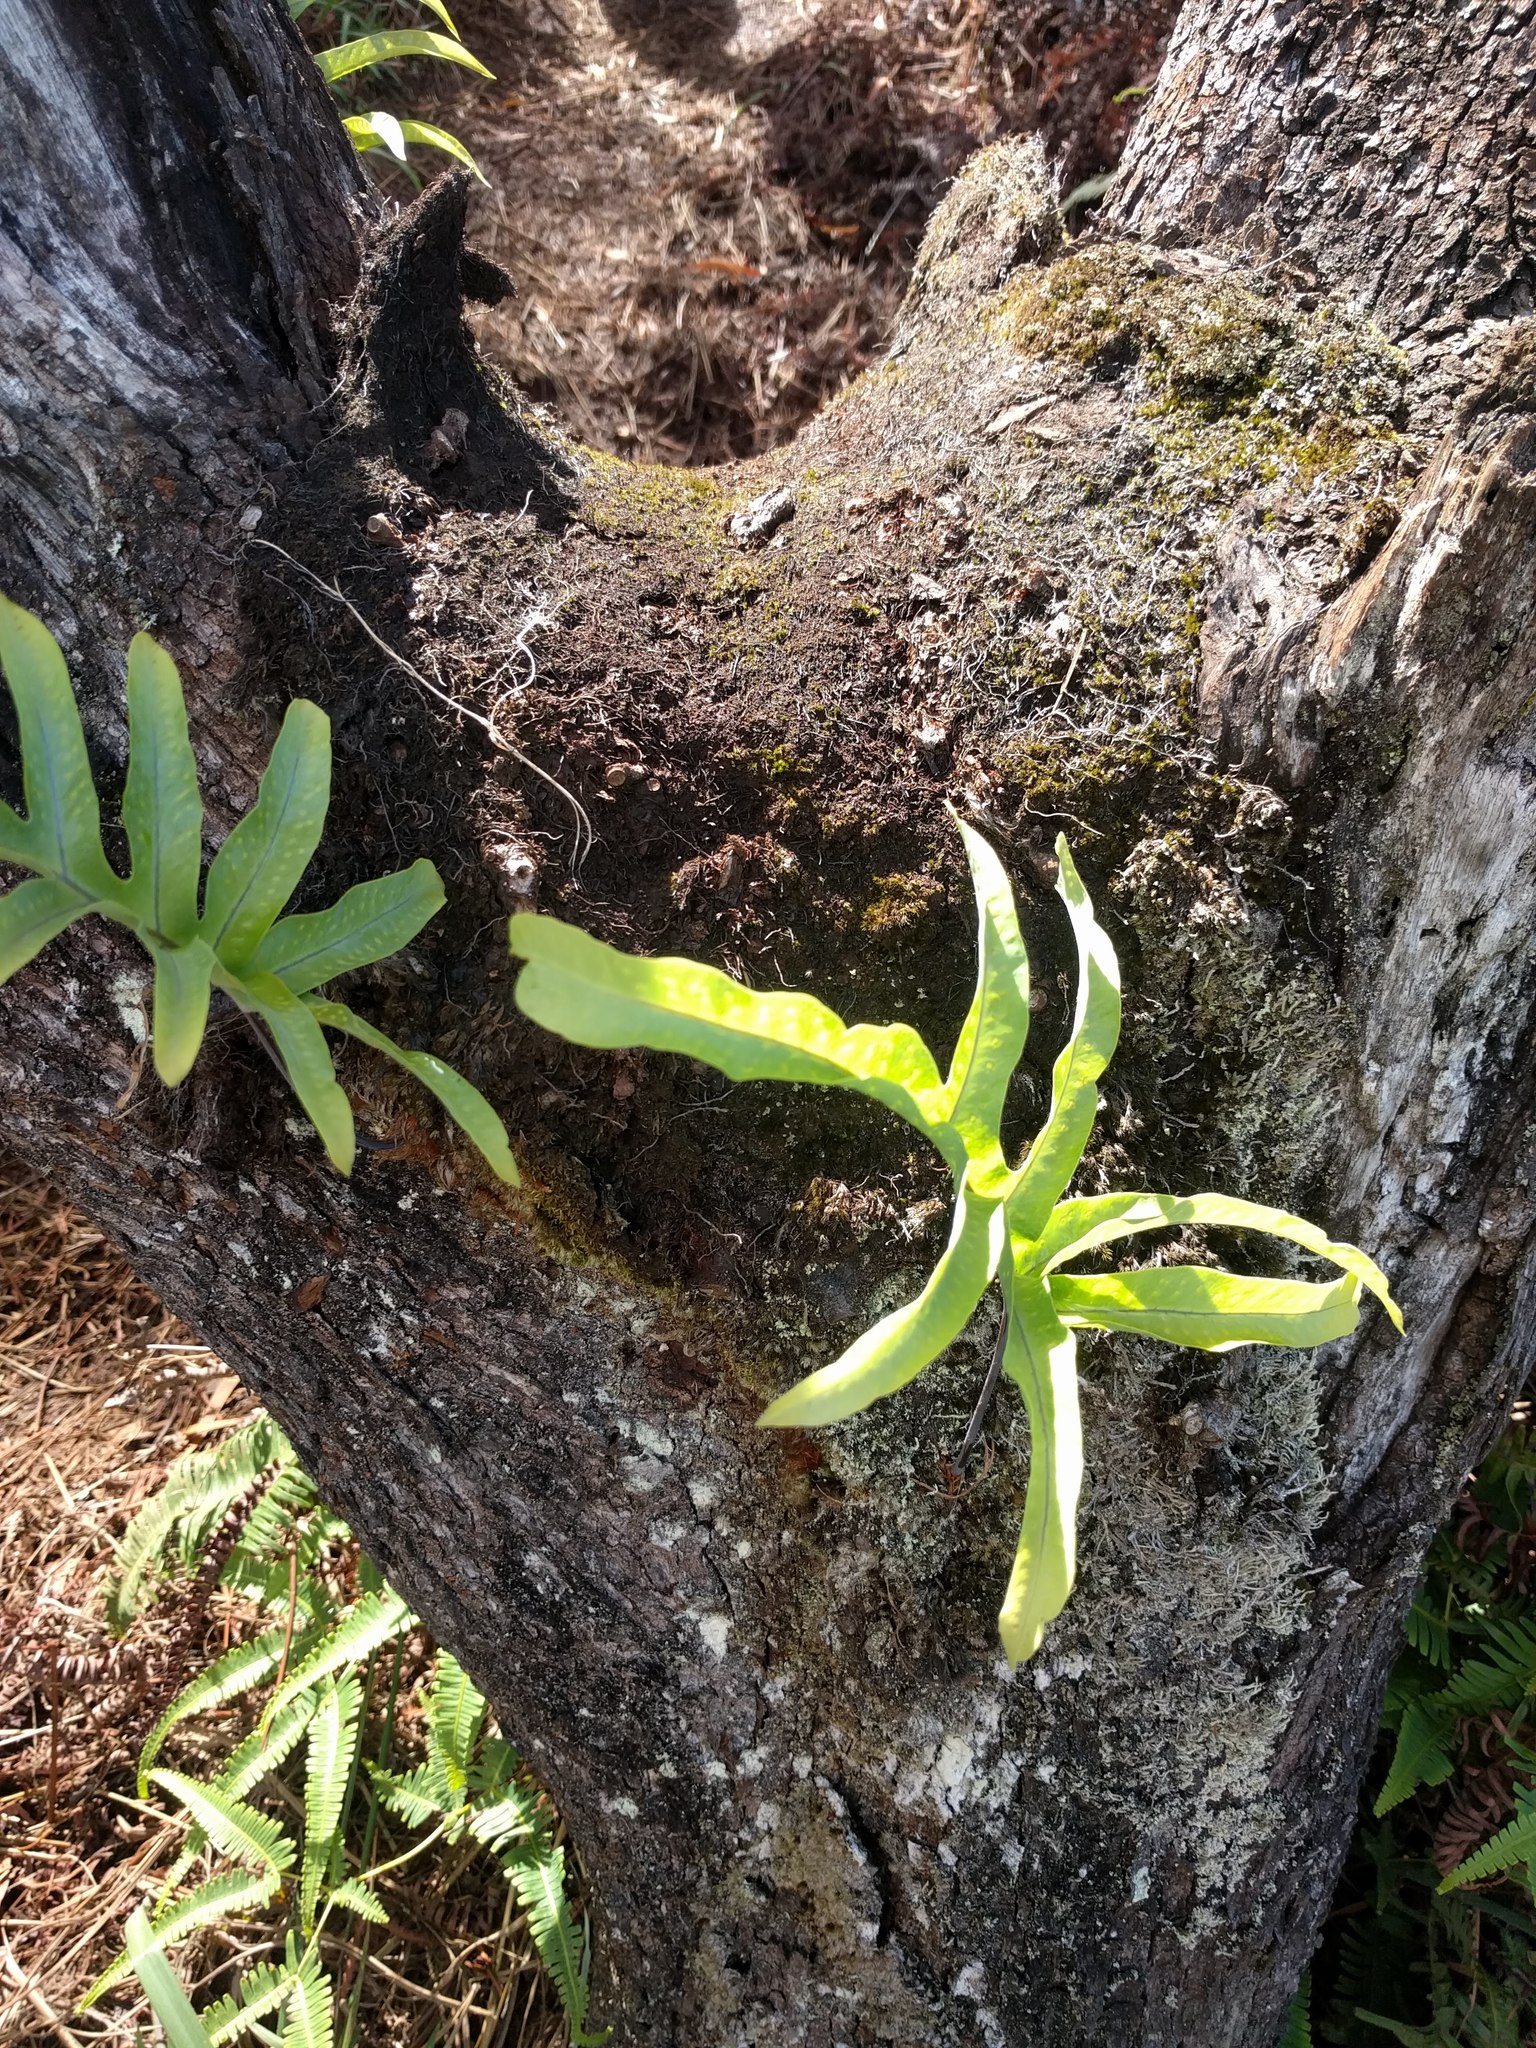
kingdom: Plantae
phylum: Tracheophyta
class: Polypodiopsida
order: Polypodiales
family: Polypodiaceae
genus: Phlebodium
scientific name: Phlebodium aureum
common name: Gold-foot fern
